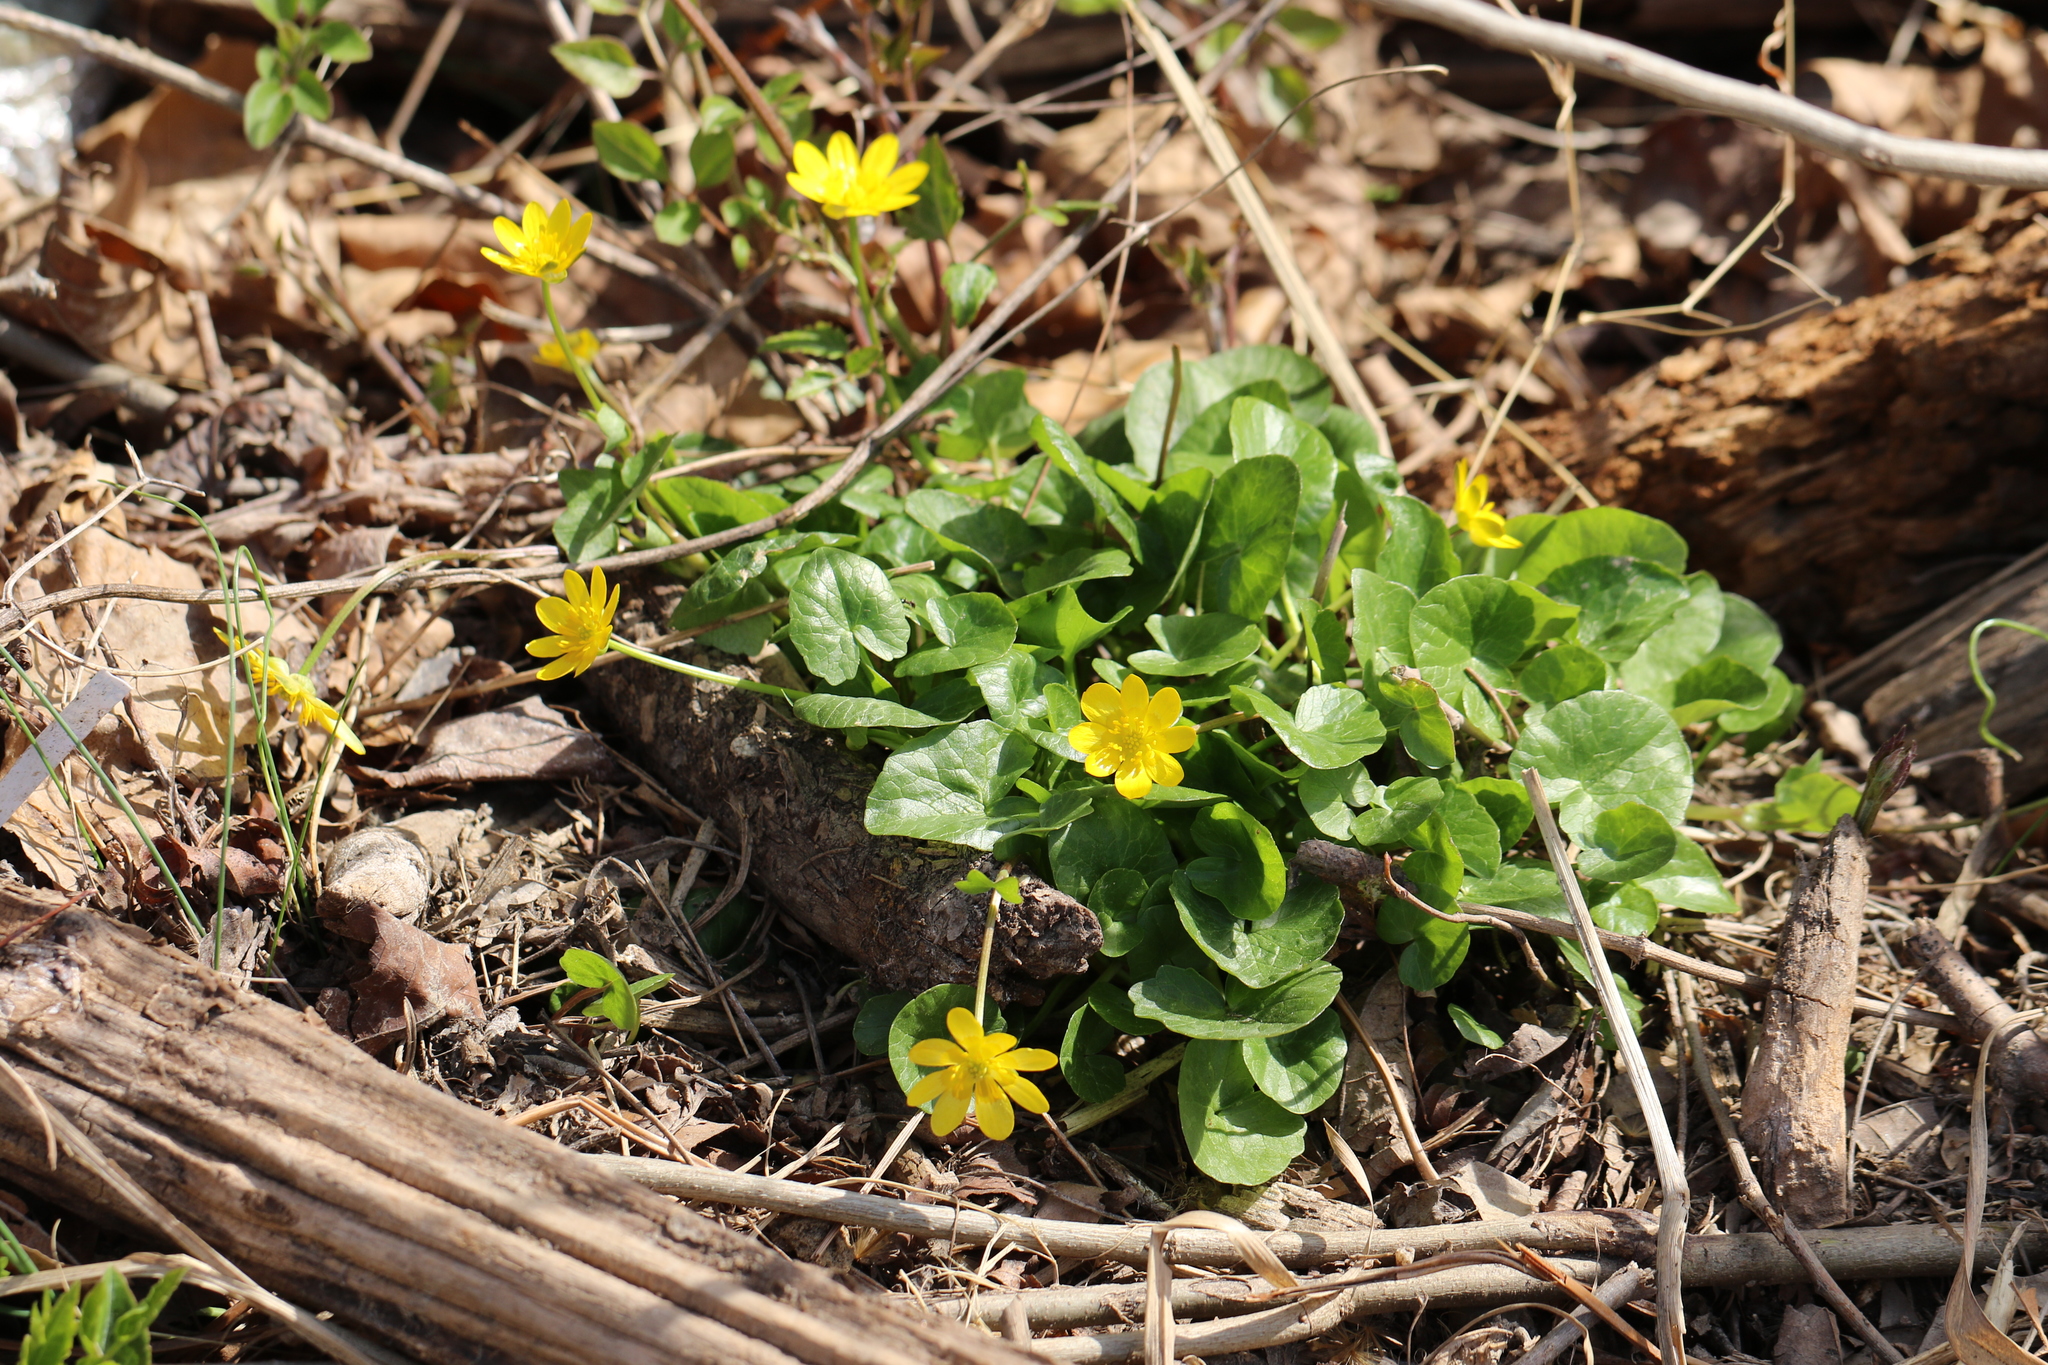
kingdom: Plantae
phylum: Tracheophyta
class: Magnoliopsida
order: Ranunculales
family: Ranunculaceae
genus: Ficaria
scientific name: Ficaria verna
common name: Lesser celandine
